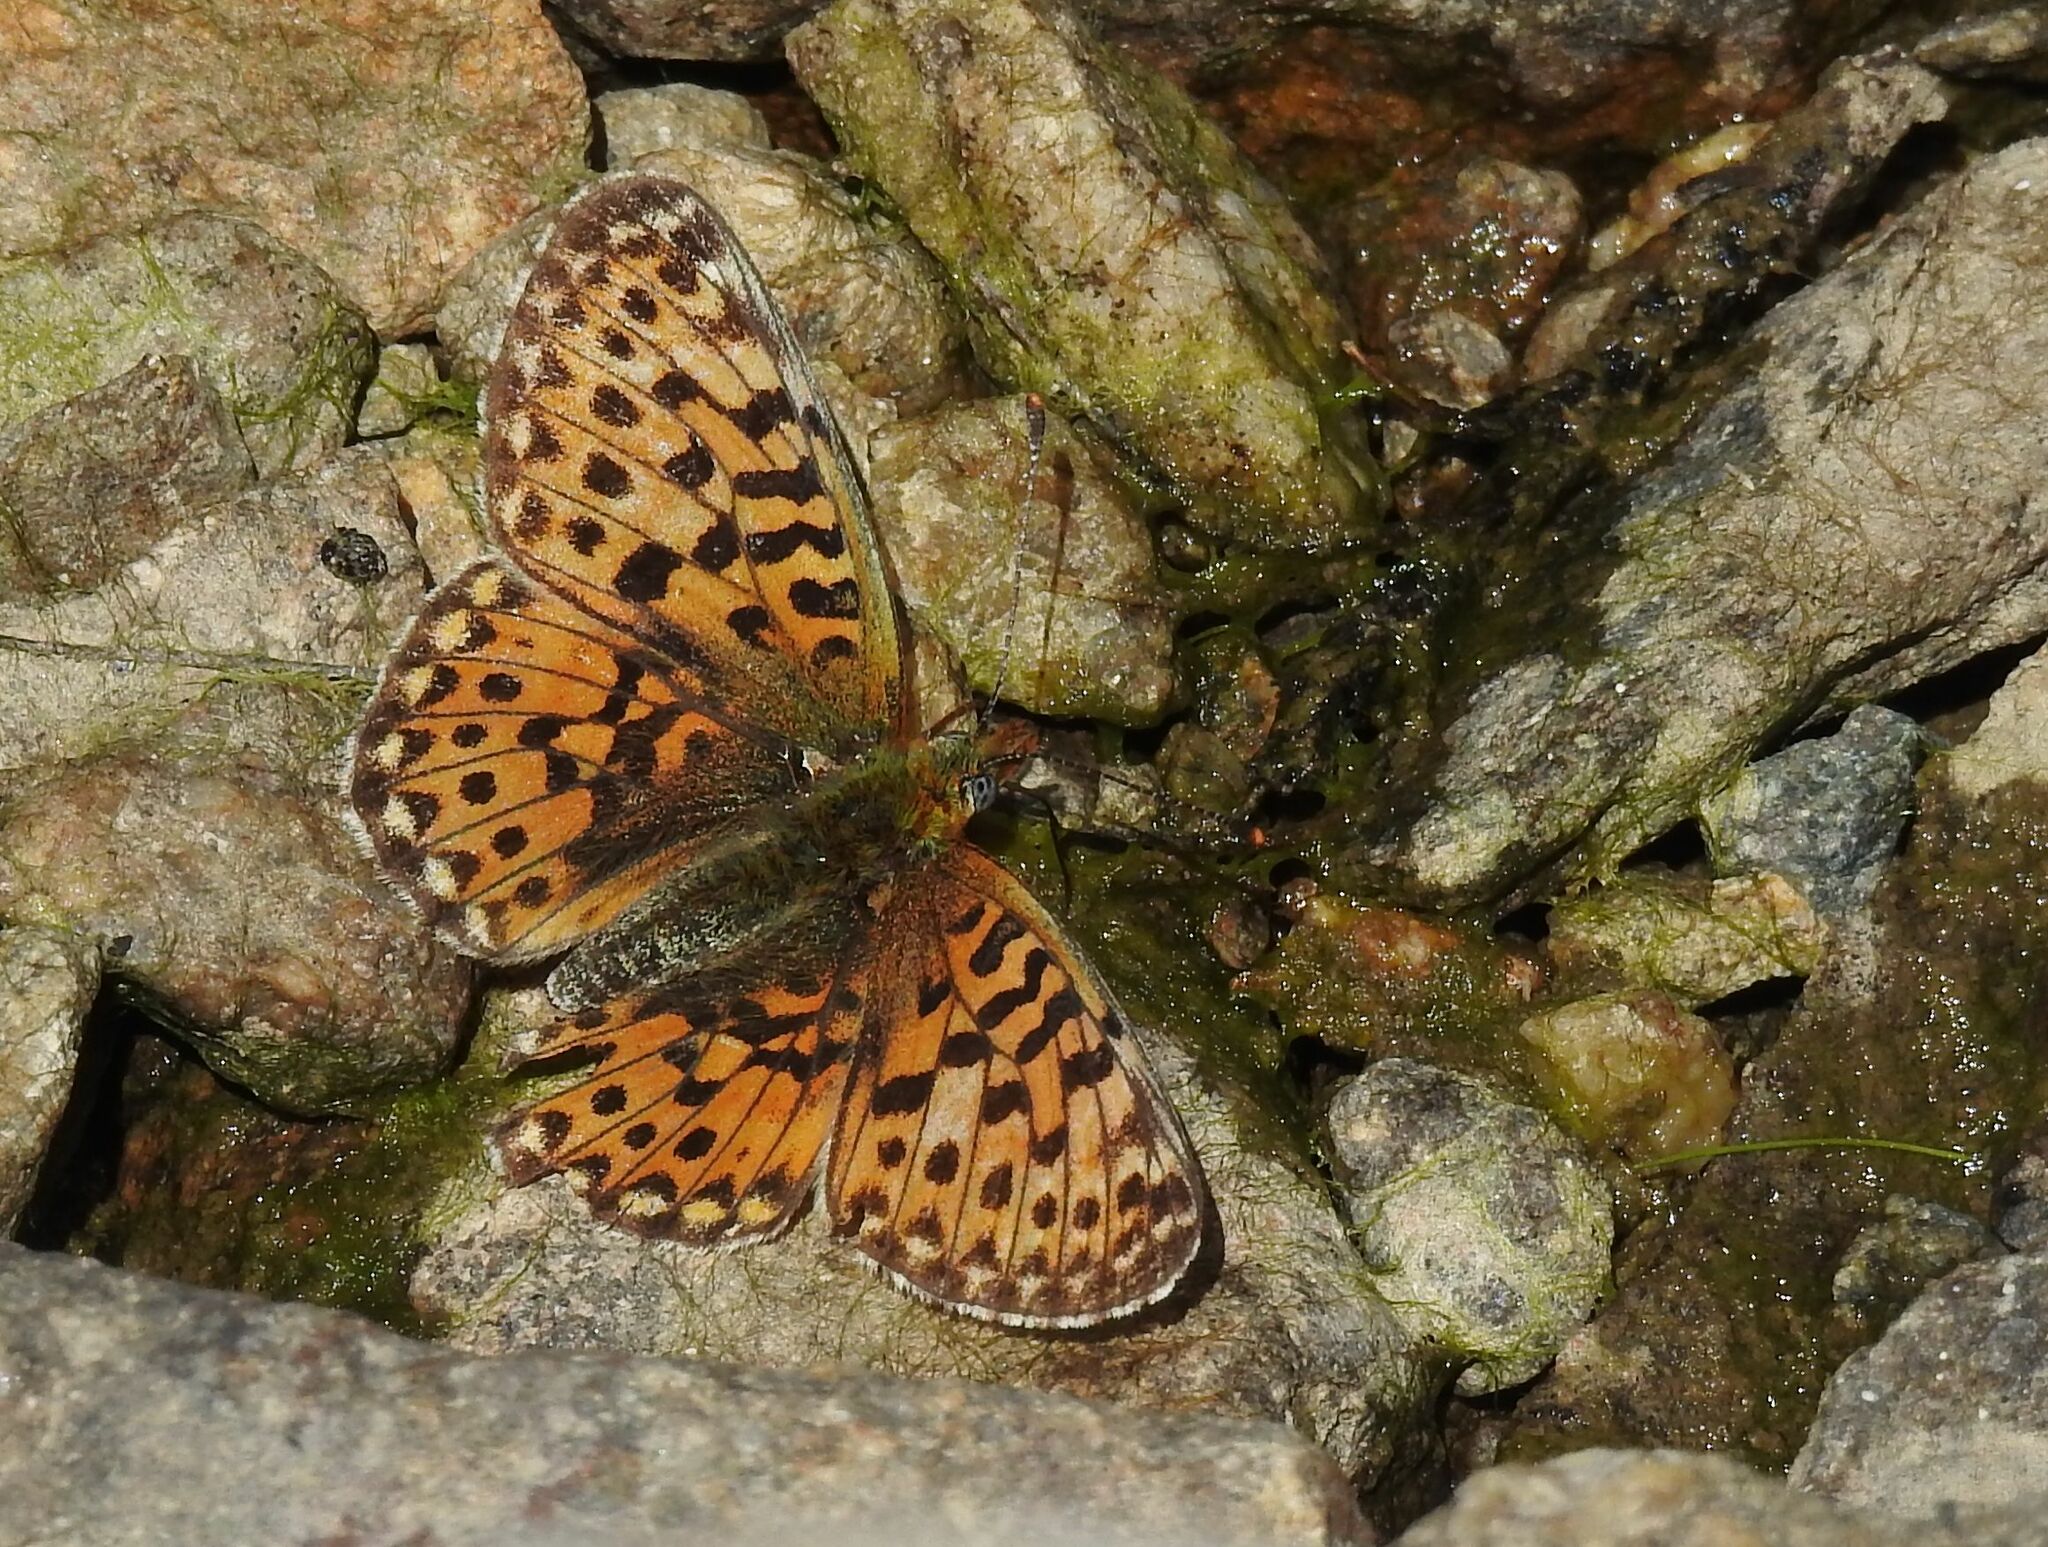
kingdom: Animalia
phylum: Arthropoda
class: Insecta
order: Lepidoptera
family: Nymphalidae
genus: Clossiana
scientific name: Clossiana euphrosyne
